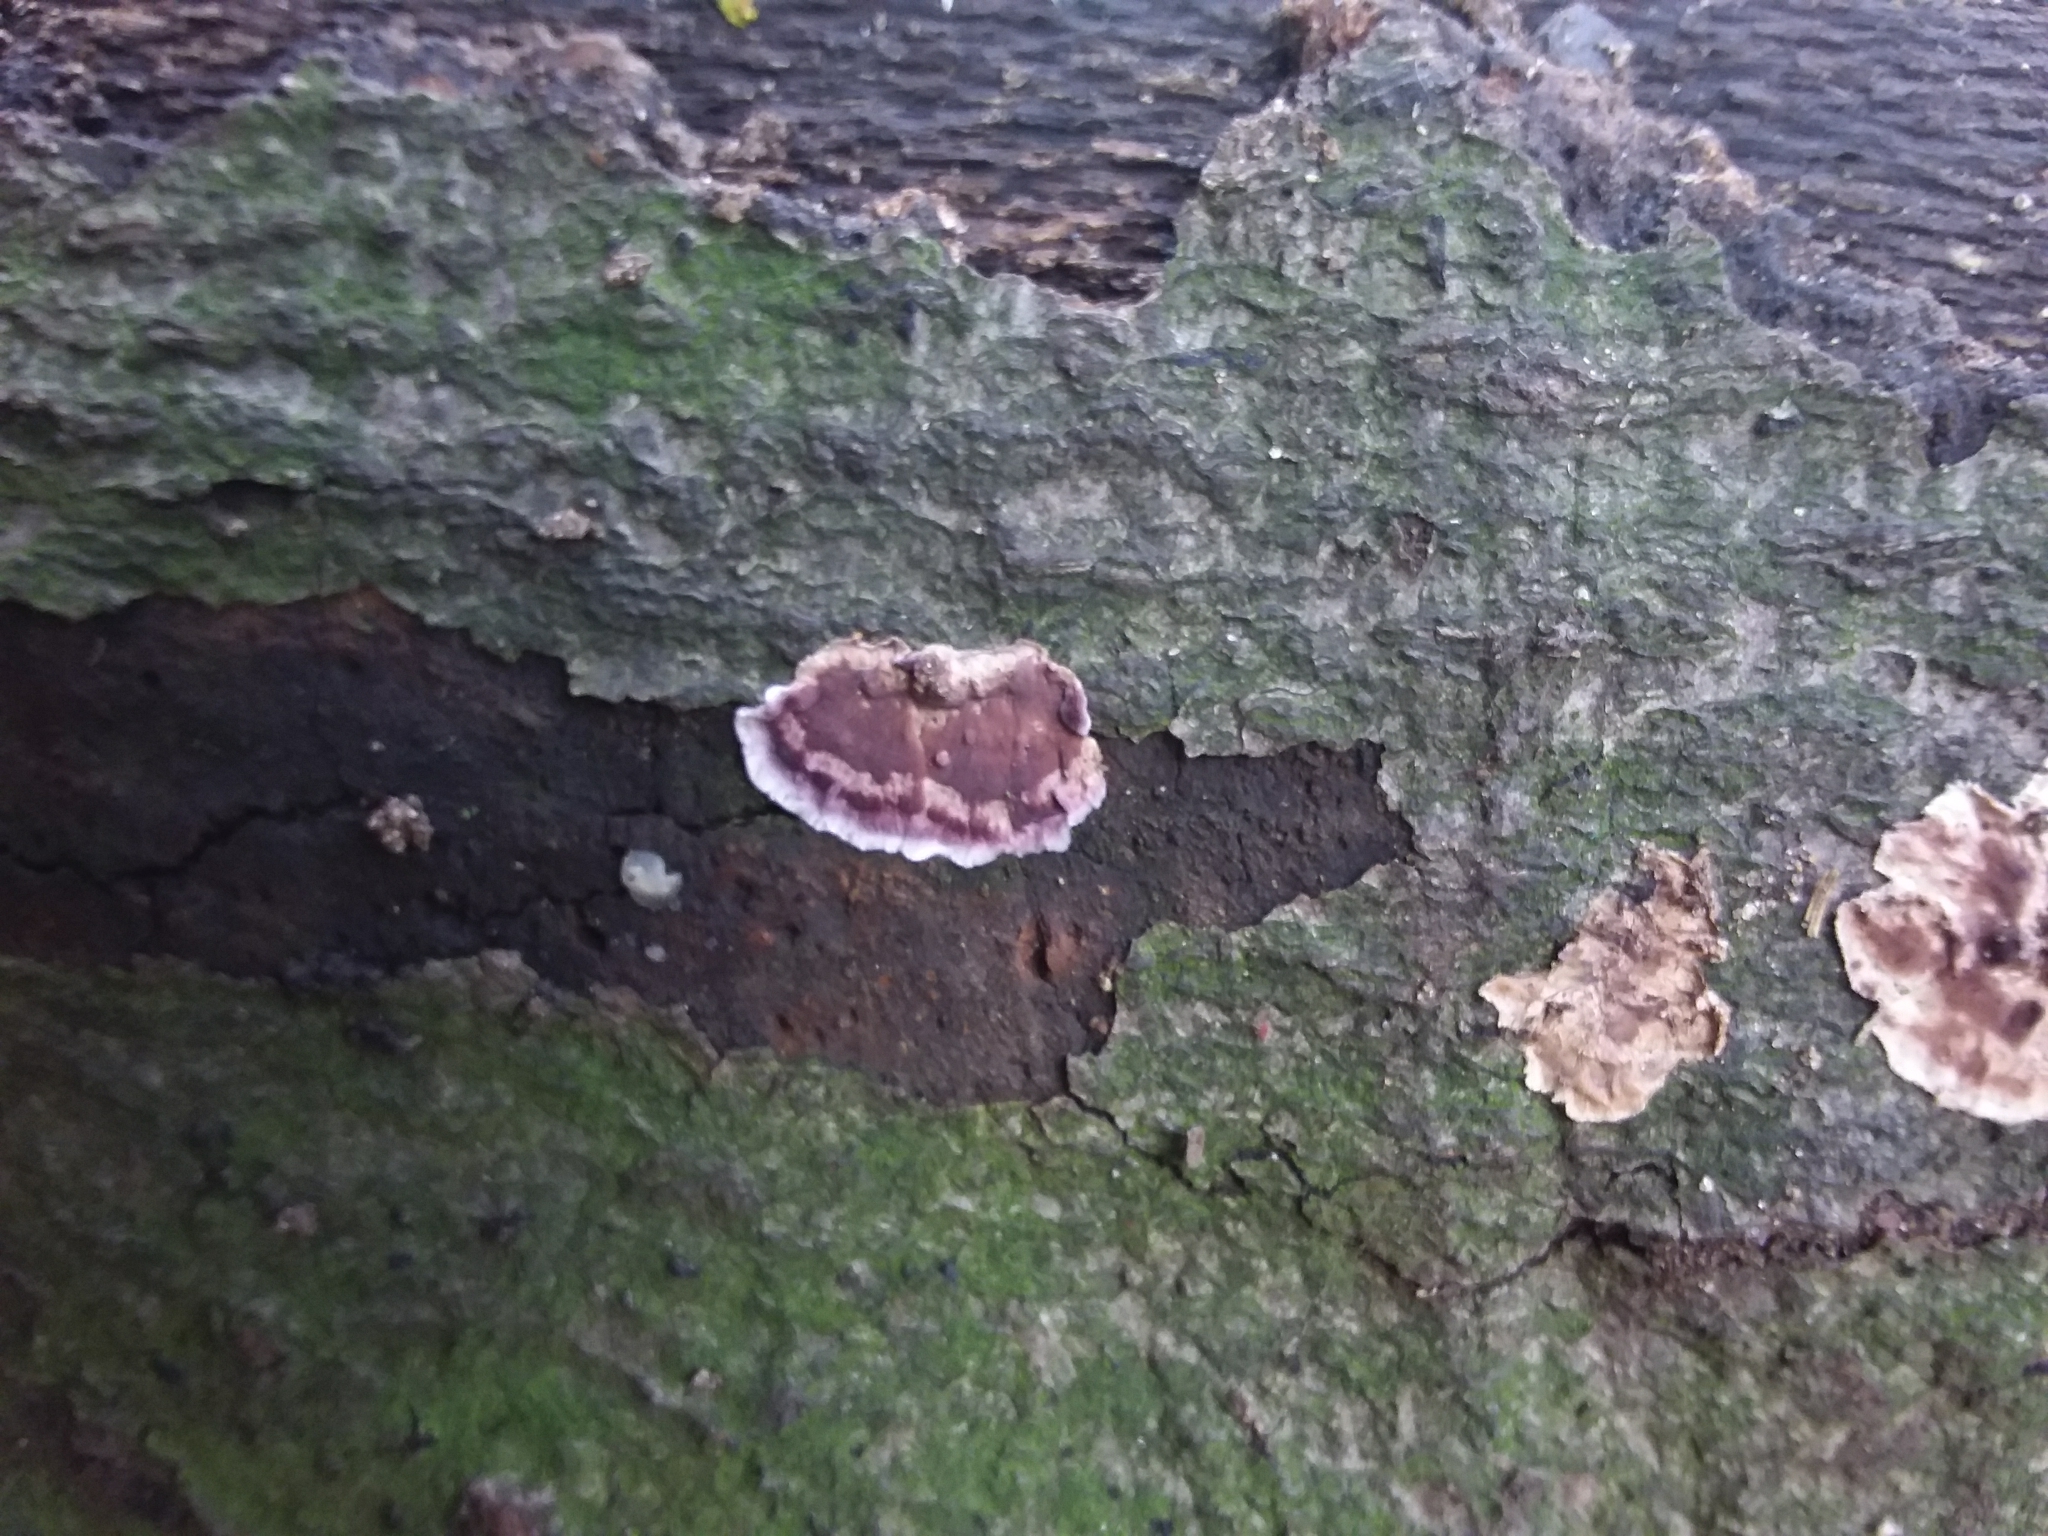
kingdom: Fungi
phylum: Basidiomycota
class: Agaricomycetes
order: Agaricales
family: Cyphellaceae
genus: Chondrostereum
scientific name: Chondrostereum purpureum
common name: Silver leaf disease
